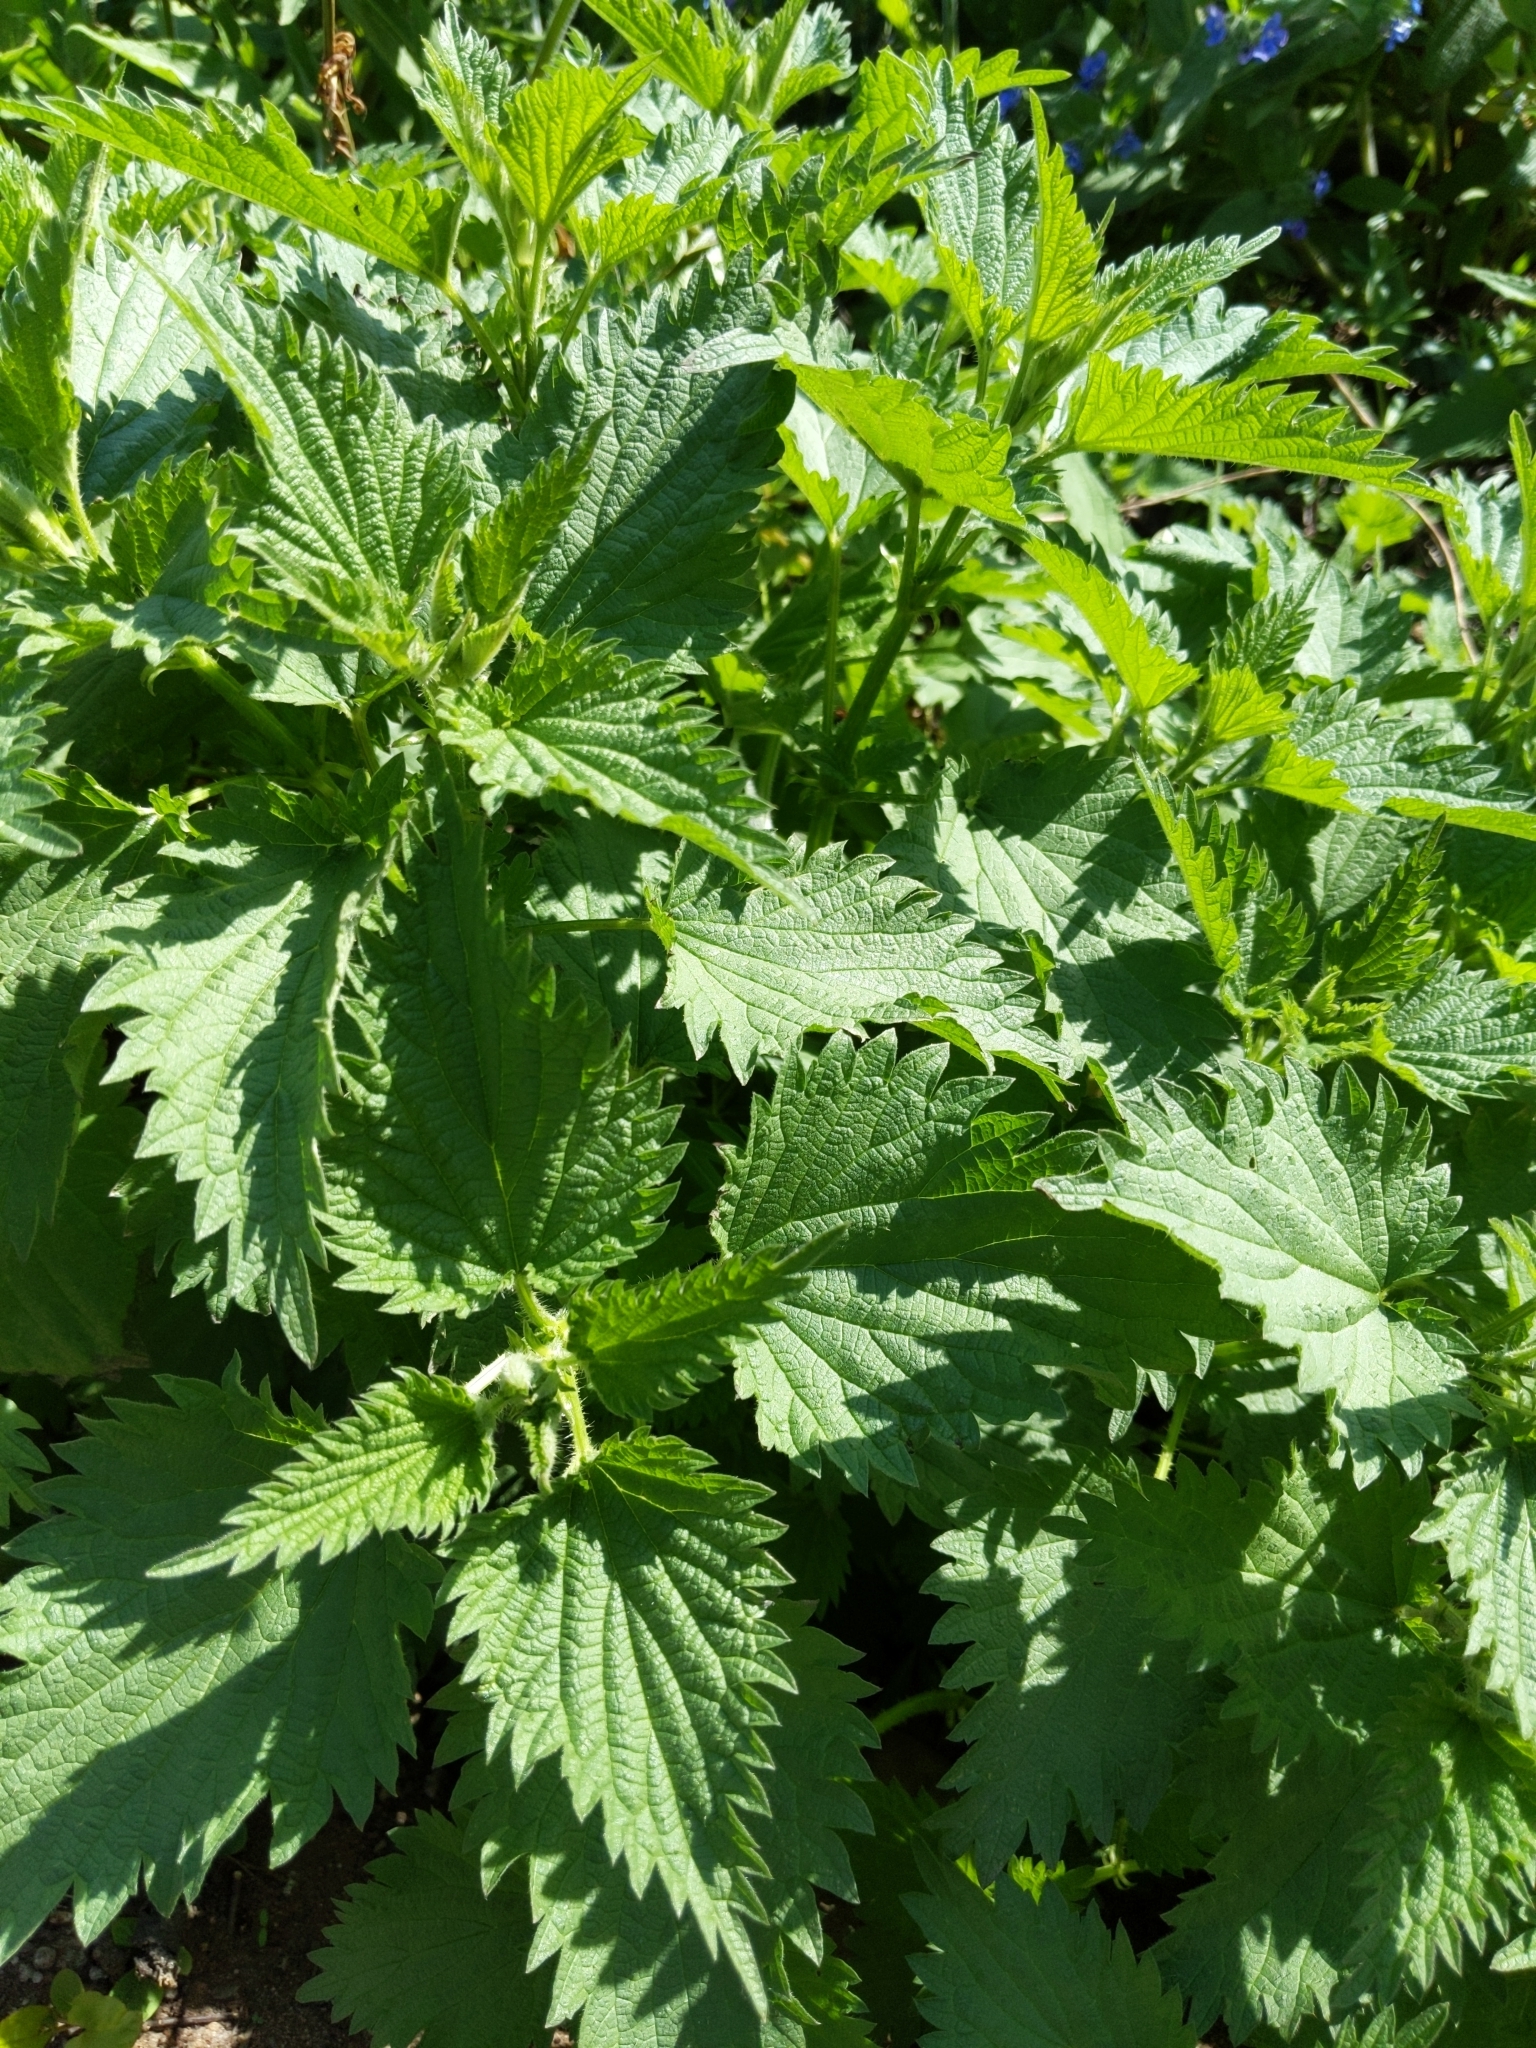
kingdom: Plantae
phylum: Tracheophyta
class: Magnoliopsida
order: Rosales
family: Urticaceae
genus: Urtica
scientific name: Urtica dioica
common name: Common nettle
